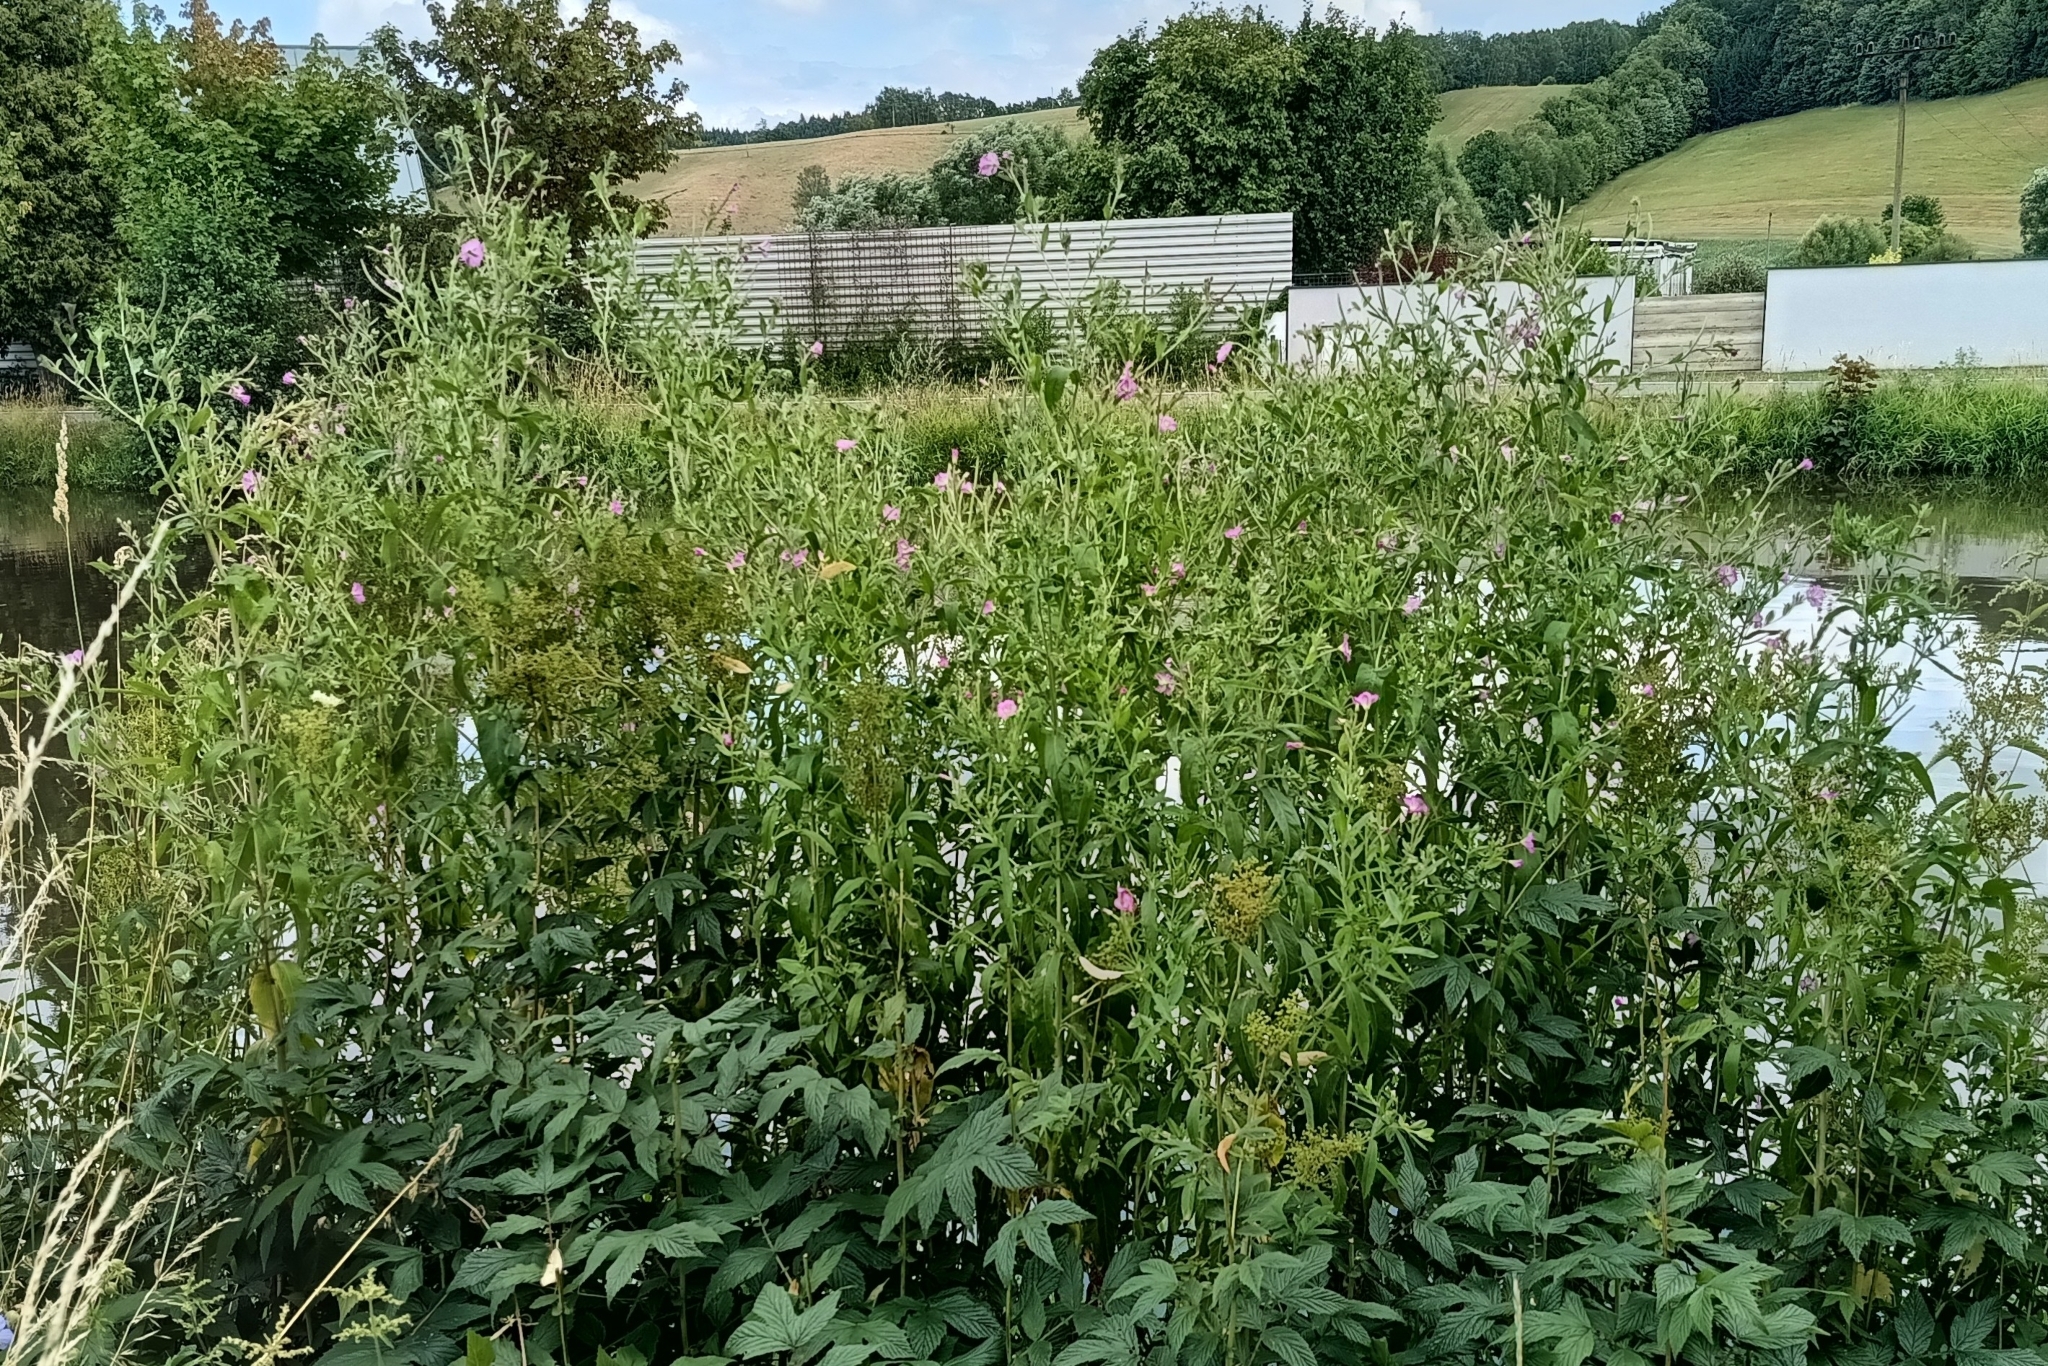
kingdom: Plantae
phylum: Tracheophyta
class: Magnoliopsida
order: Myrtales
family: Onagraceae
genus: Epilobium
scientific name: Epilobium hirsutum
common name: Great willowherb
